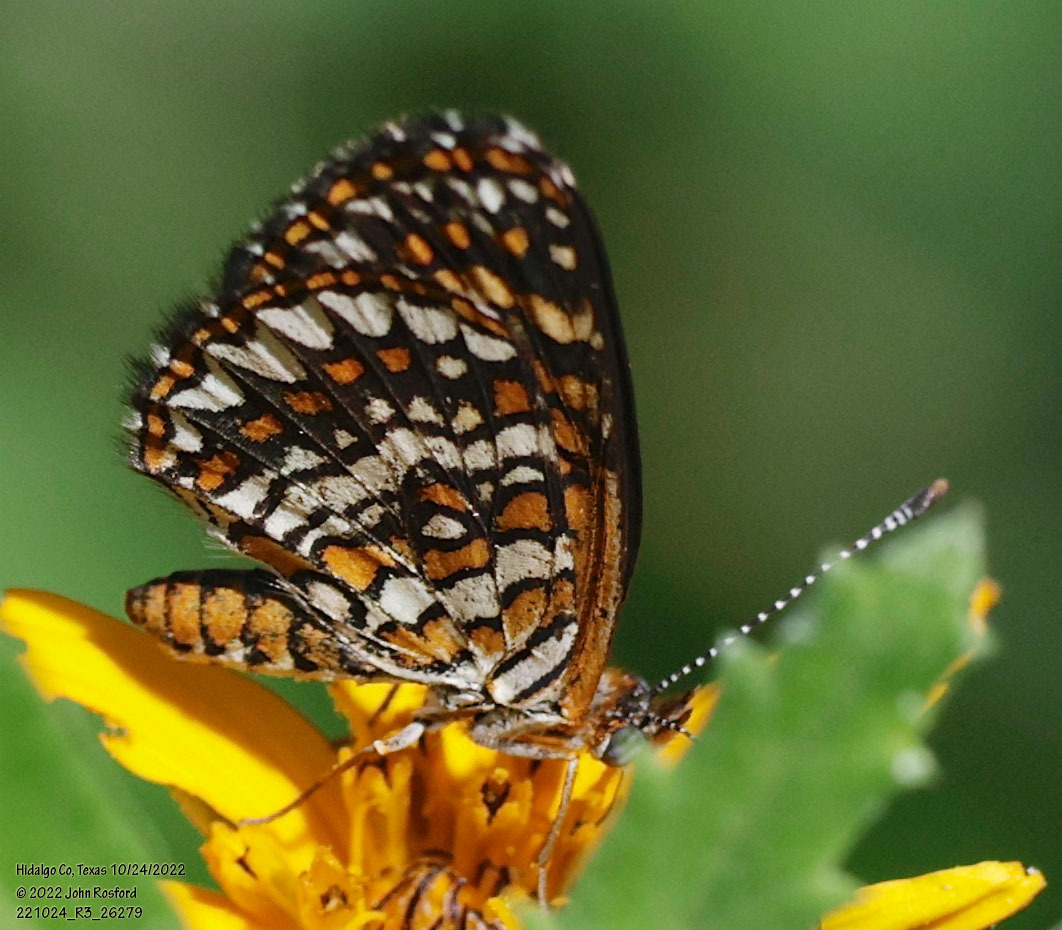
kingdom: Animalia
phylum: Arthropoda
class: Insecta
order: Lepidoptera
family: Nymphalidae
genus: Texola
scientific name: Texola elada
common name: Elada checkerspot
